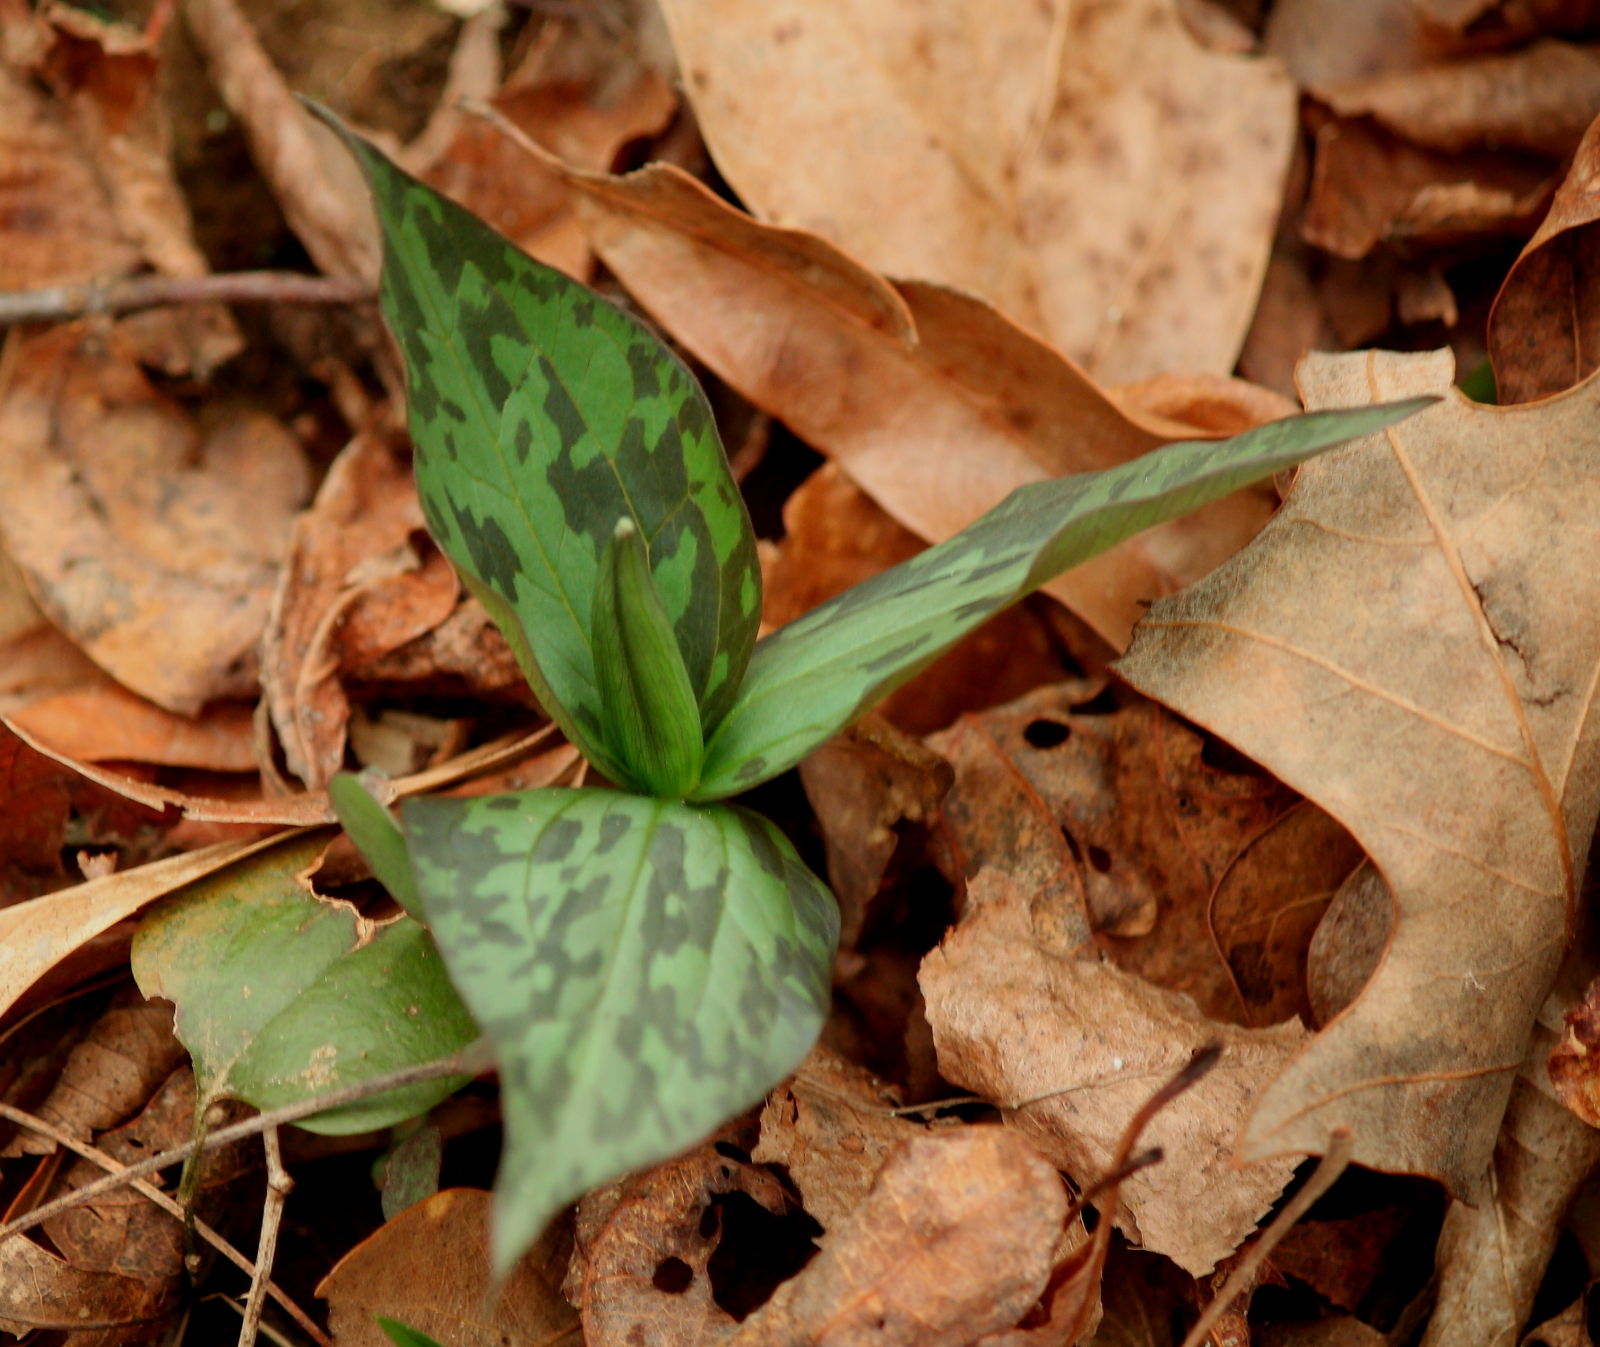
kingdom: Plantae
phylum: Tracheophyta
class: Liliopsida
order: Liliales
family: Melanthiaceae
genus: Trillium
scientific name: Trillium sessile
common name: Sessile trillium
